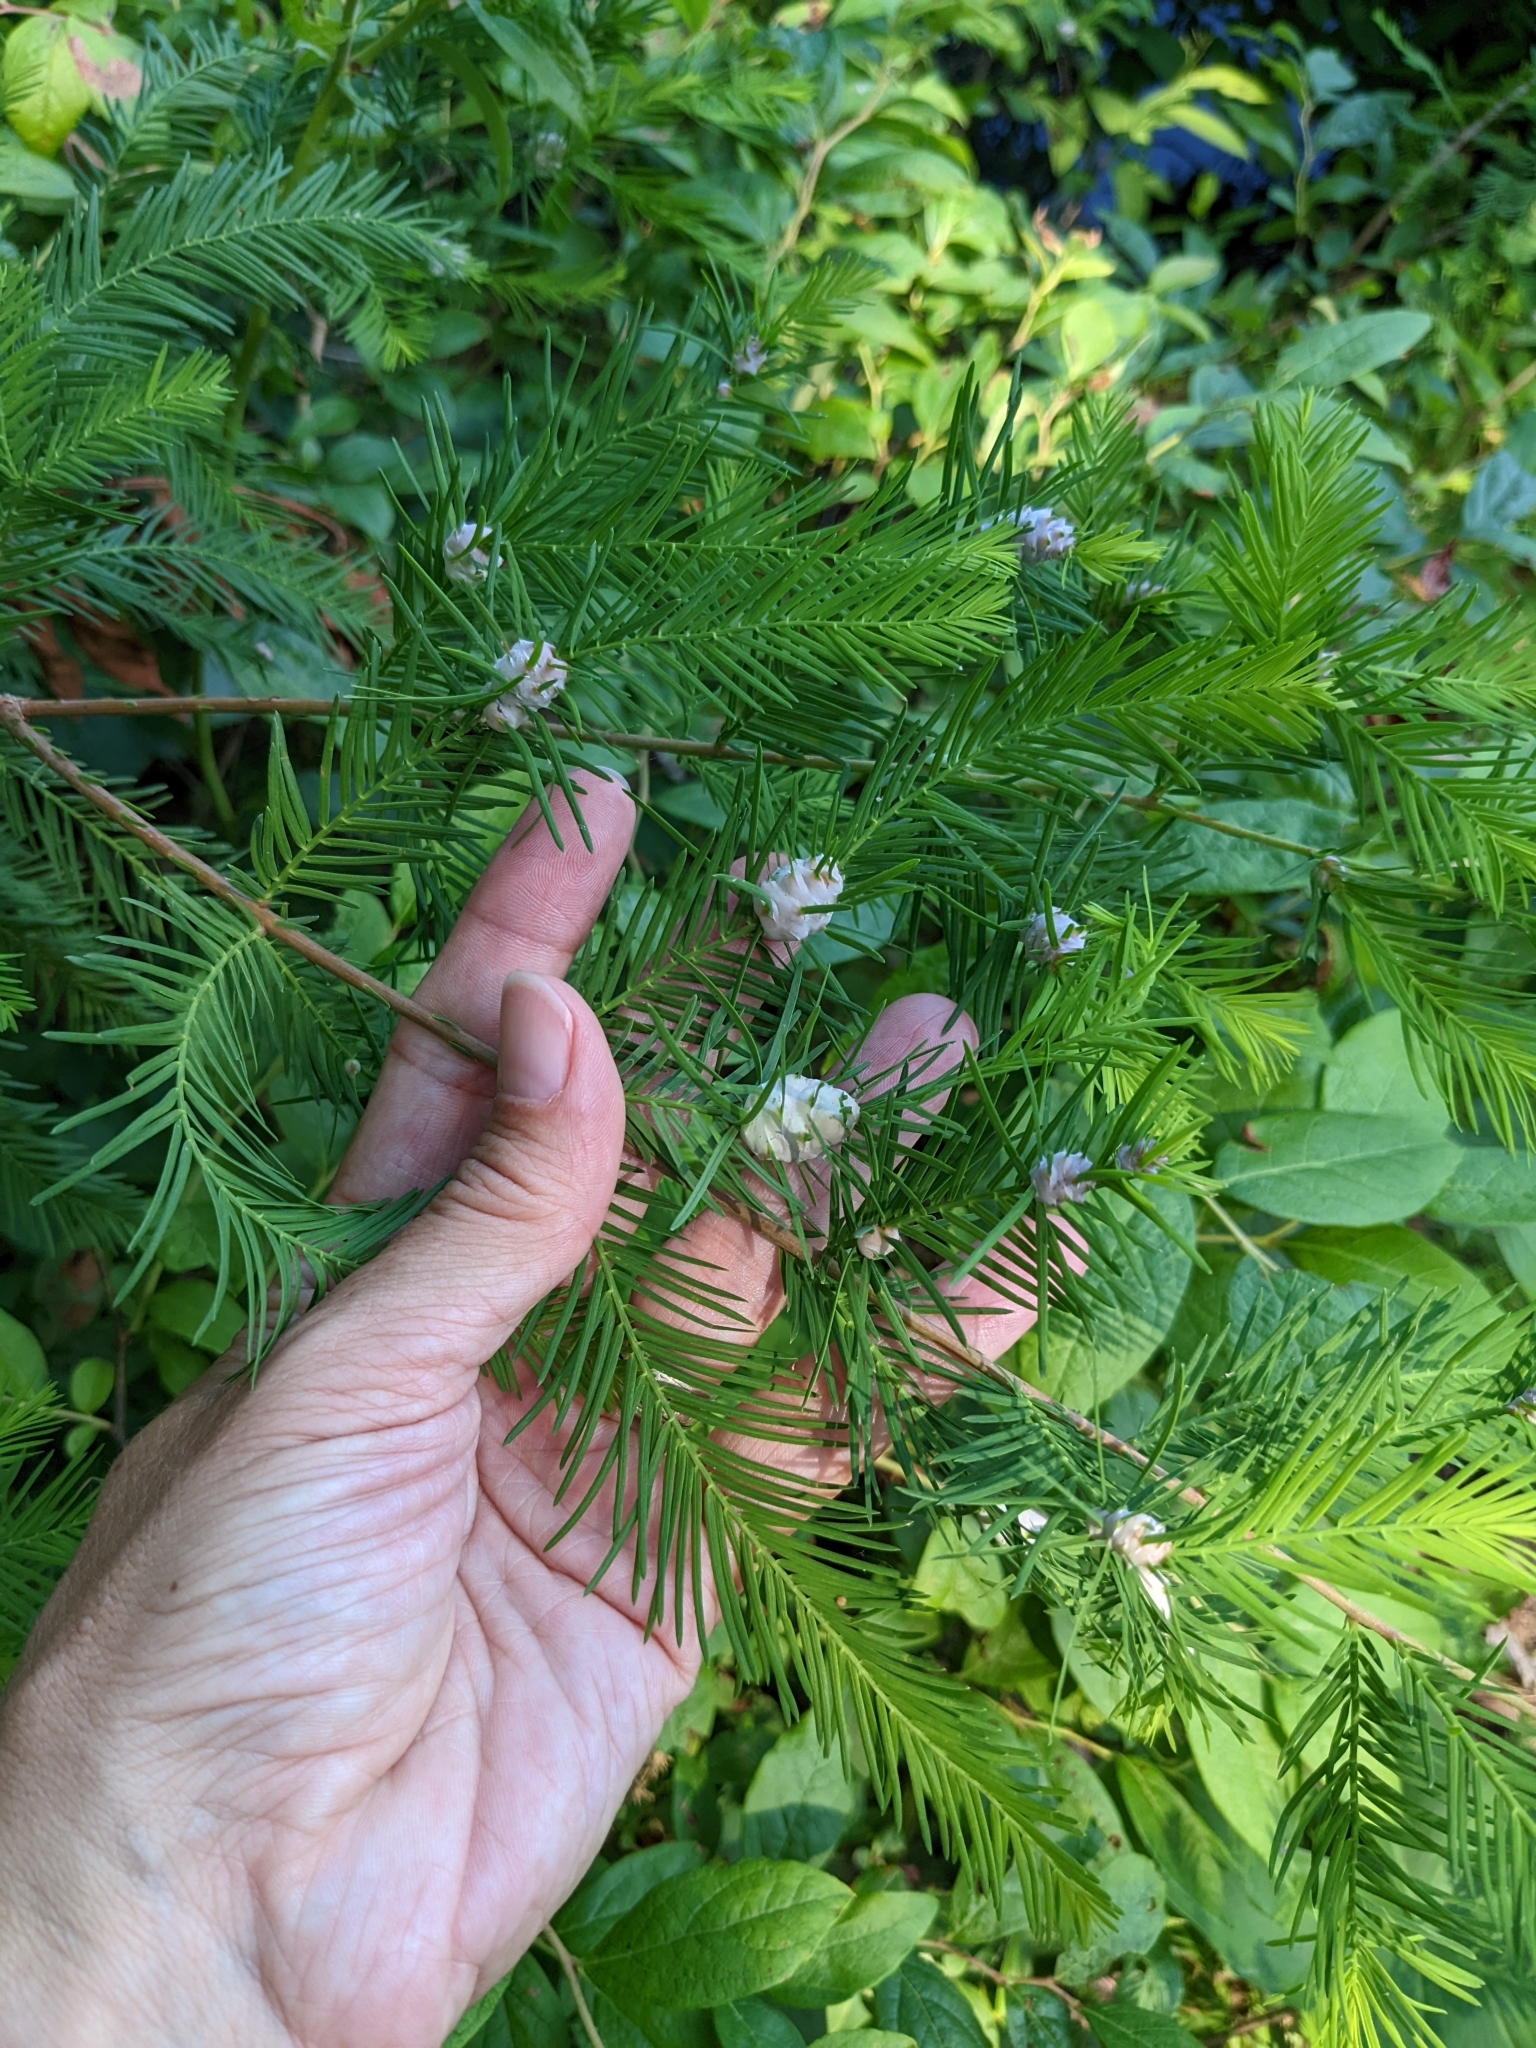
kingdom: Animalia
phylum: Arthropoda
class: Insecta
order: Diptera
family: Cecidomyiidae
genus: Taxodiomyia
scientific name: Taxodiomyia cupressiananassa
